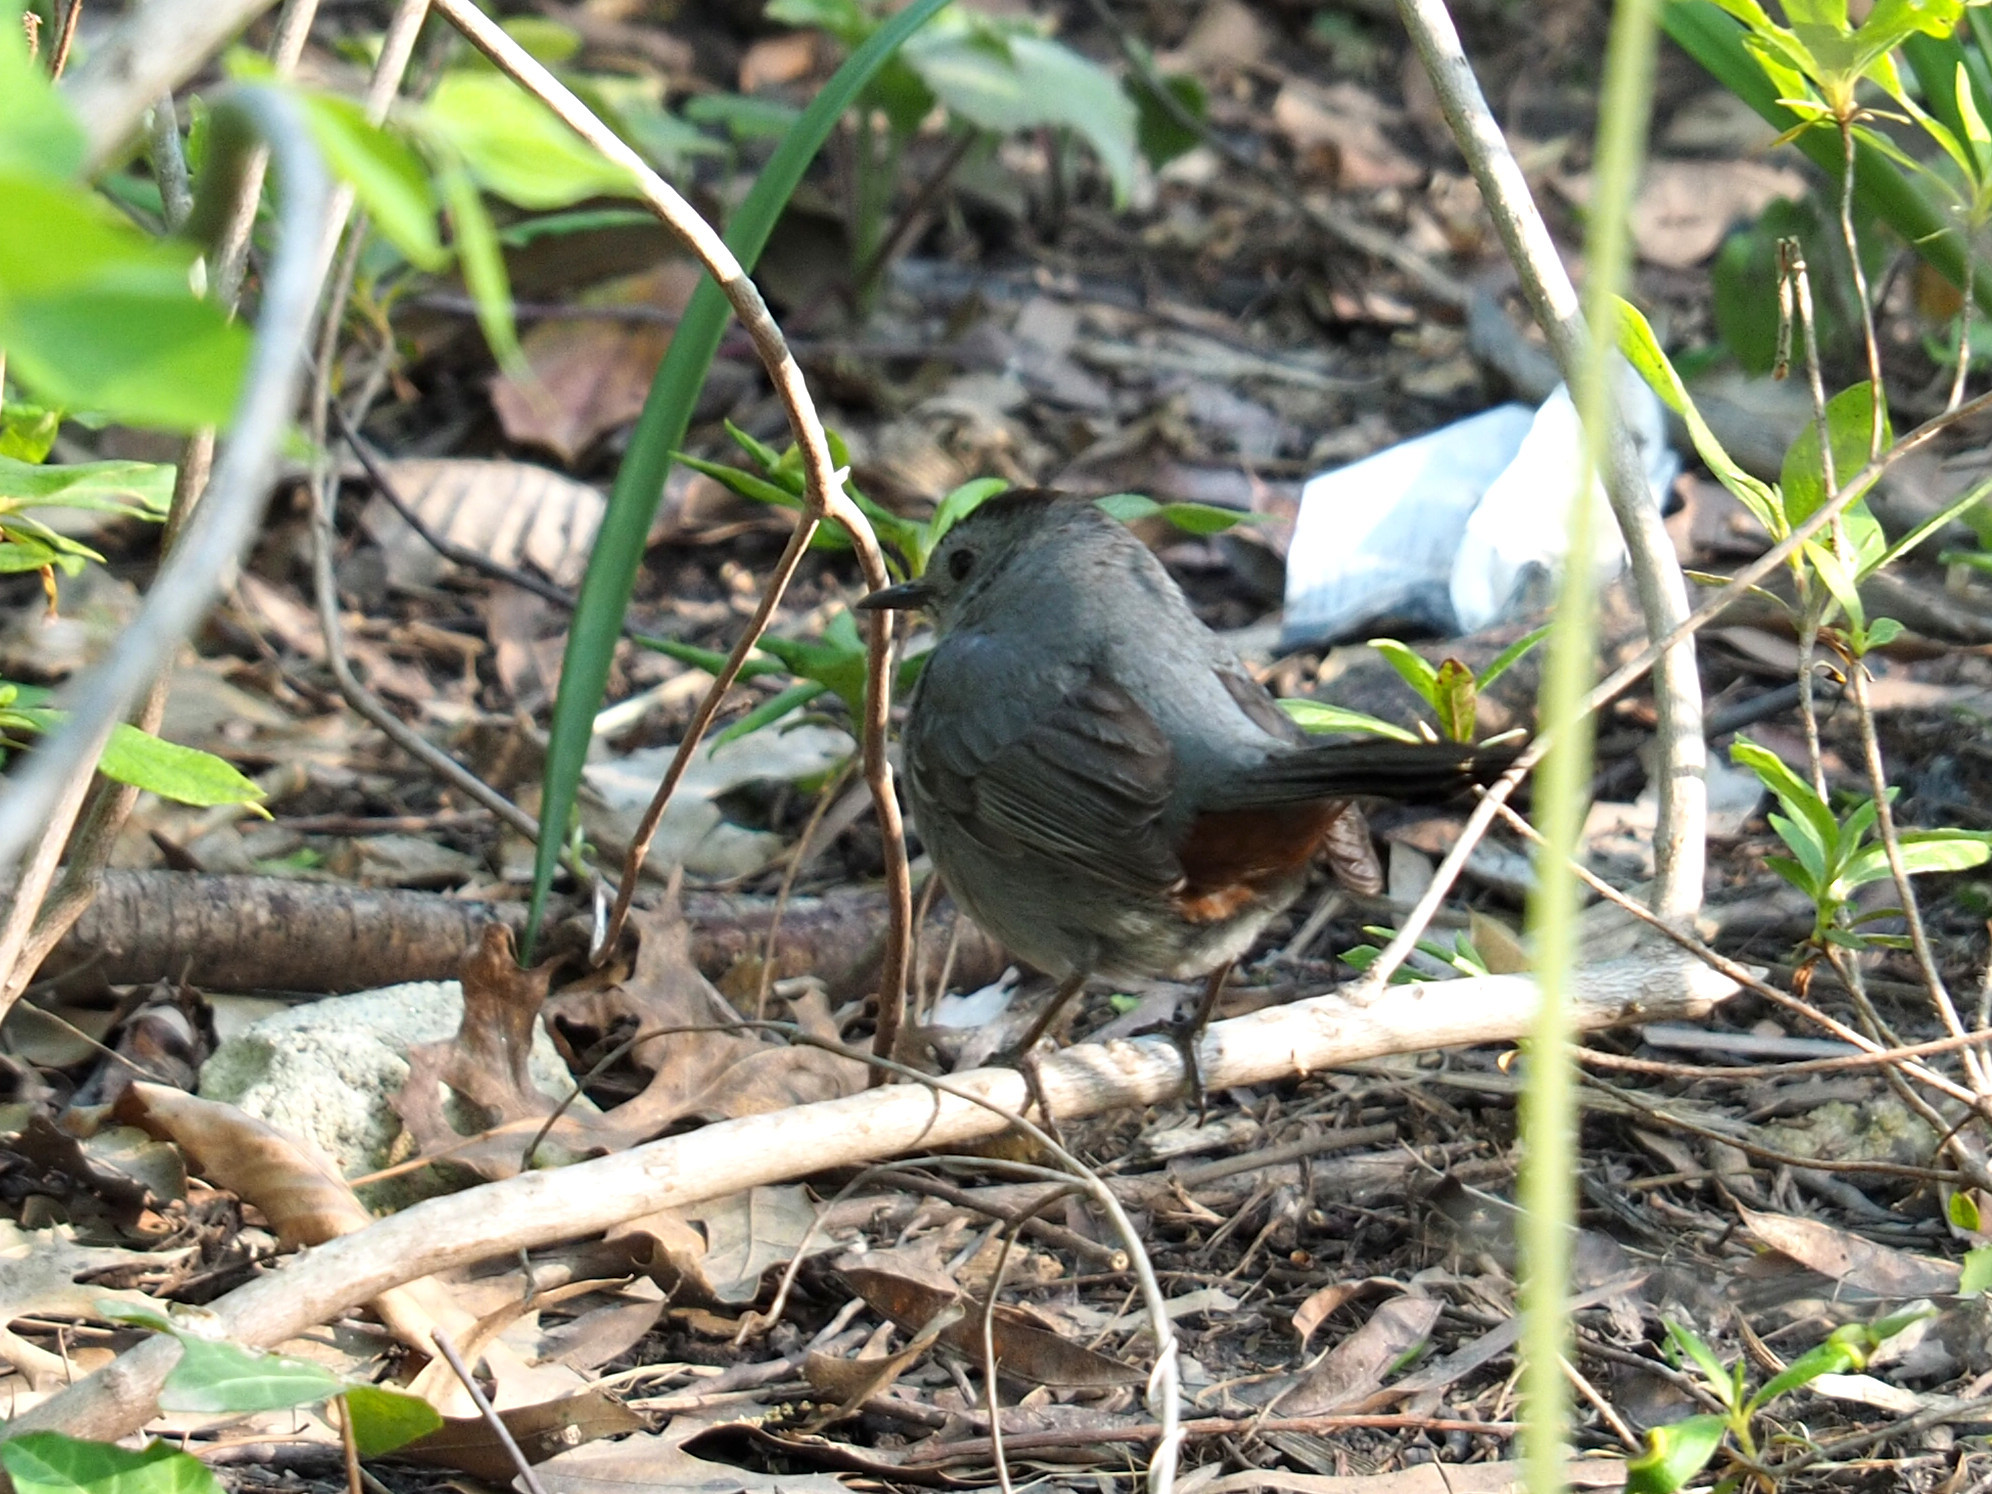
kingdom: Animalia
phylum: Chordata
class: Aves
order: Passeriformes
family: Mimidae
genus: Dumetella
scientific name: Dumetella carolinensis
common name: Gray catbird
